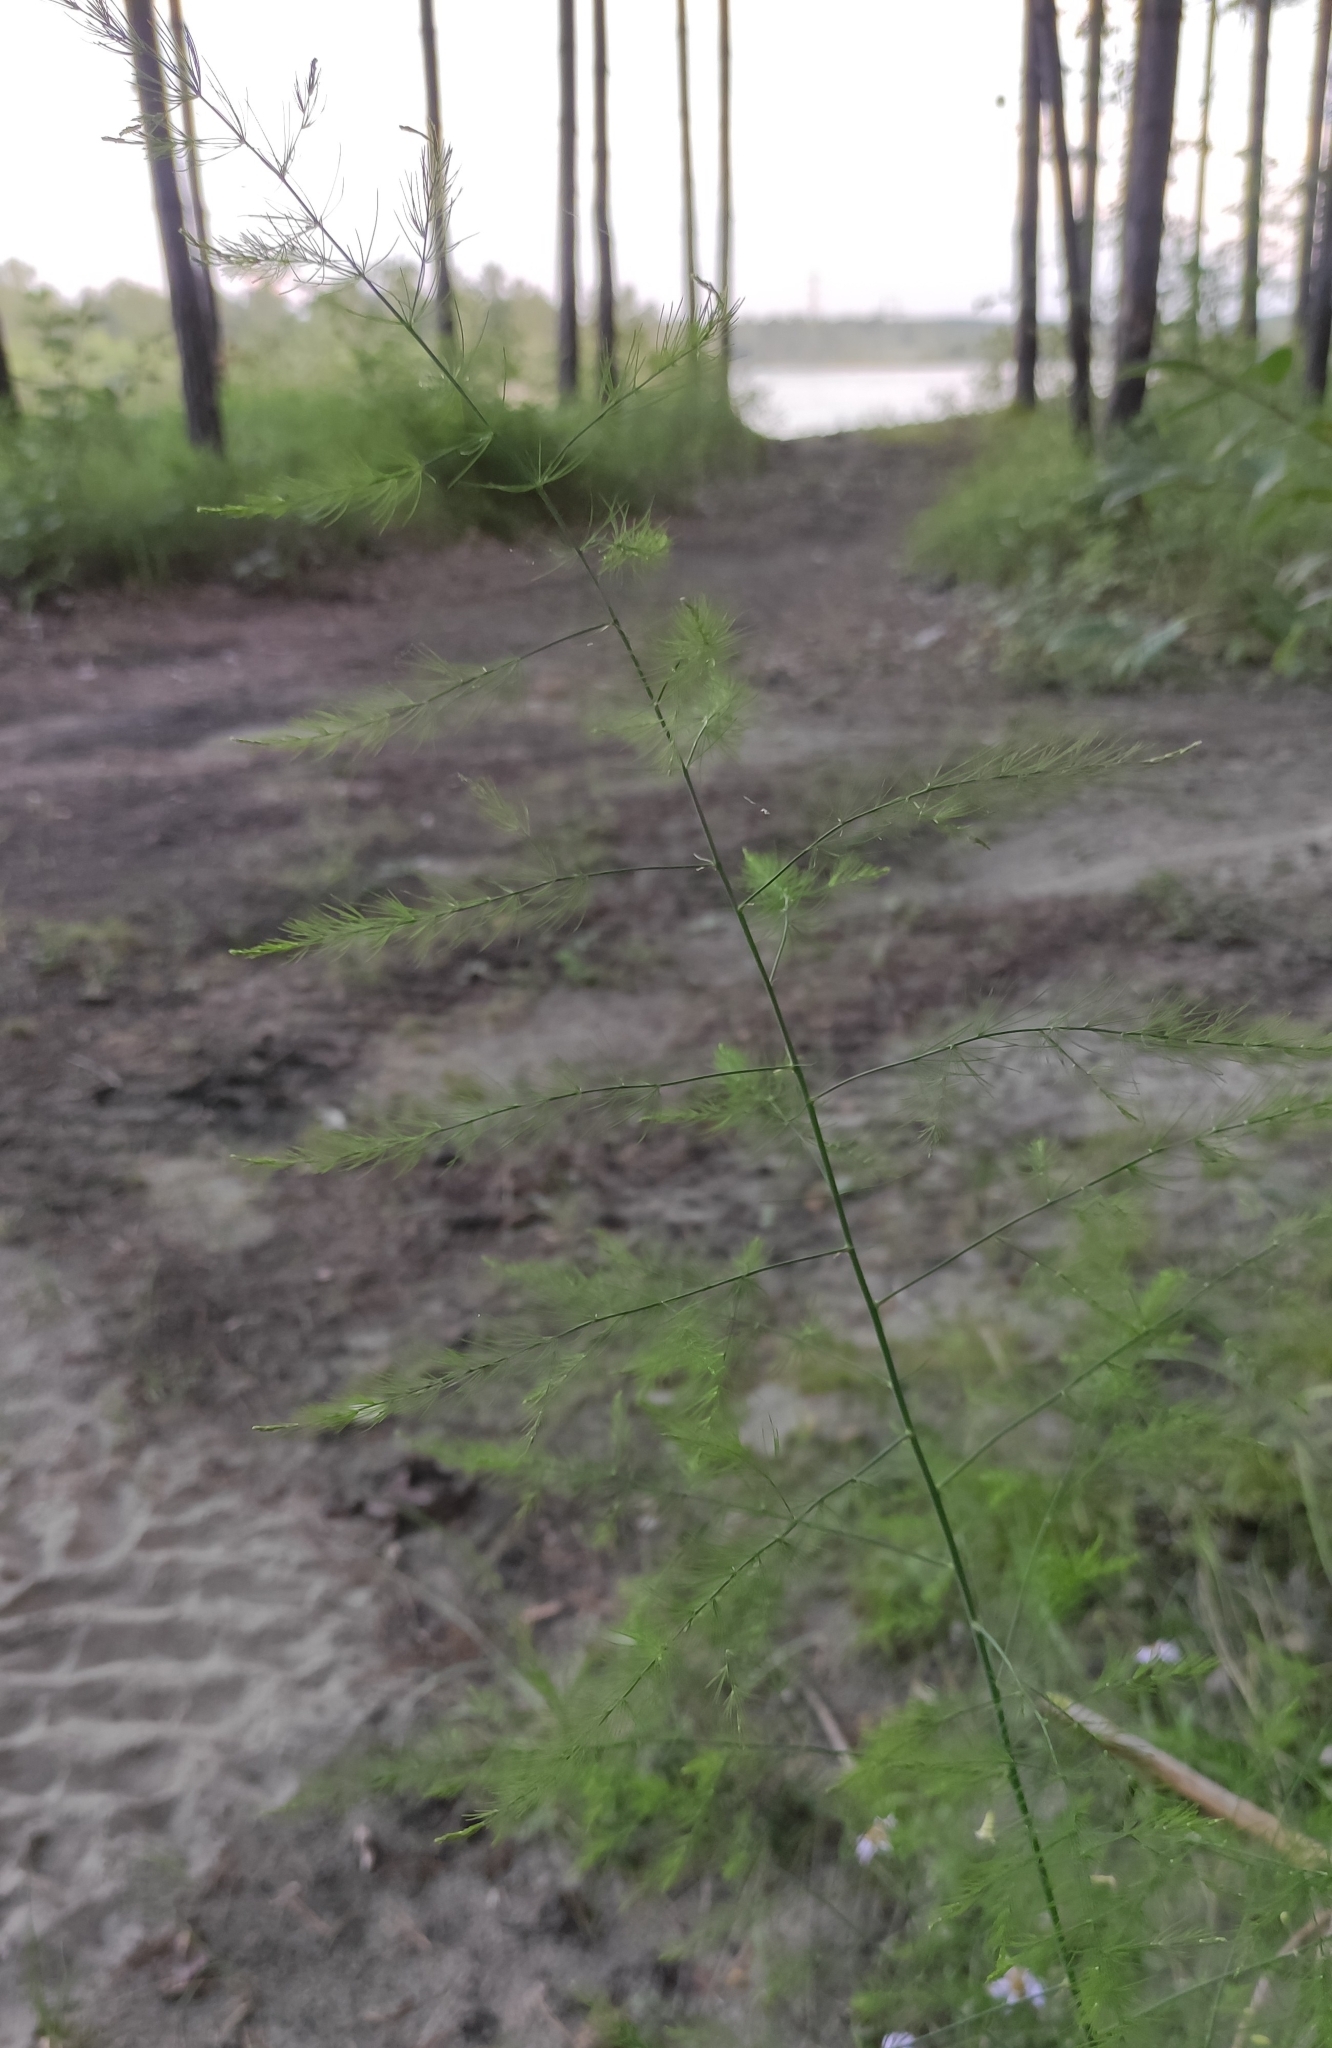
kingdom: Plantae
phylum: Tracheophyta
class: Liliopsida
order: Asparagales
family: Asparagaceae
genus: Asparagus
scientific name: Asparagus officinalis
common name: Garden asparagus
